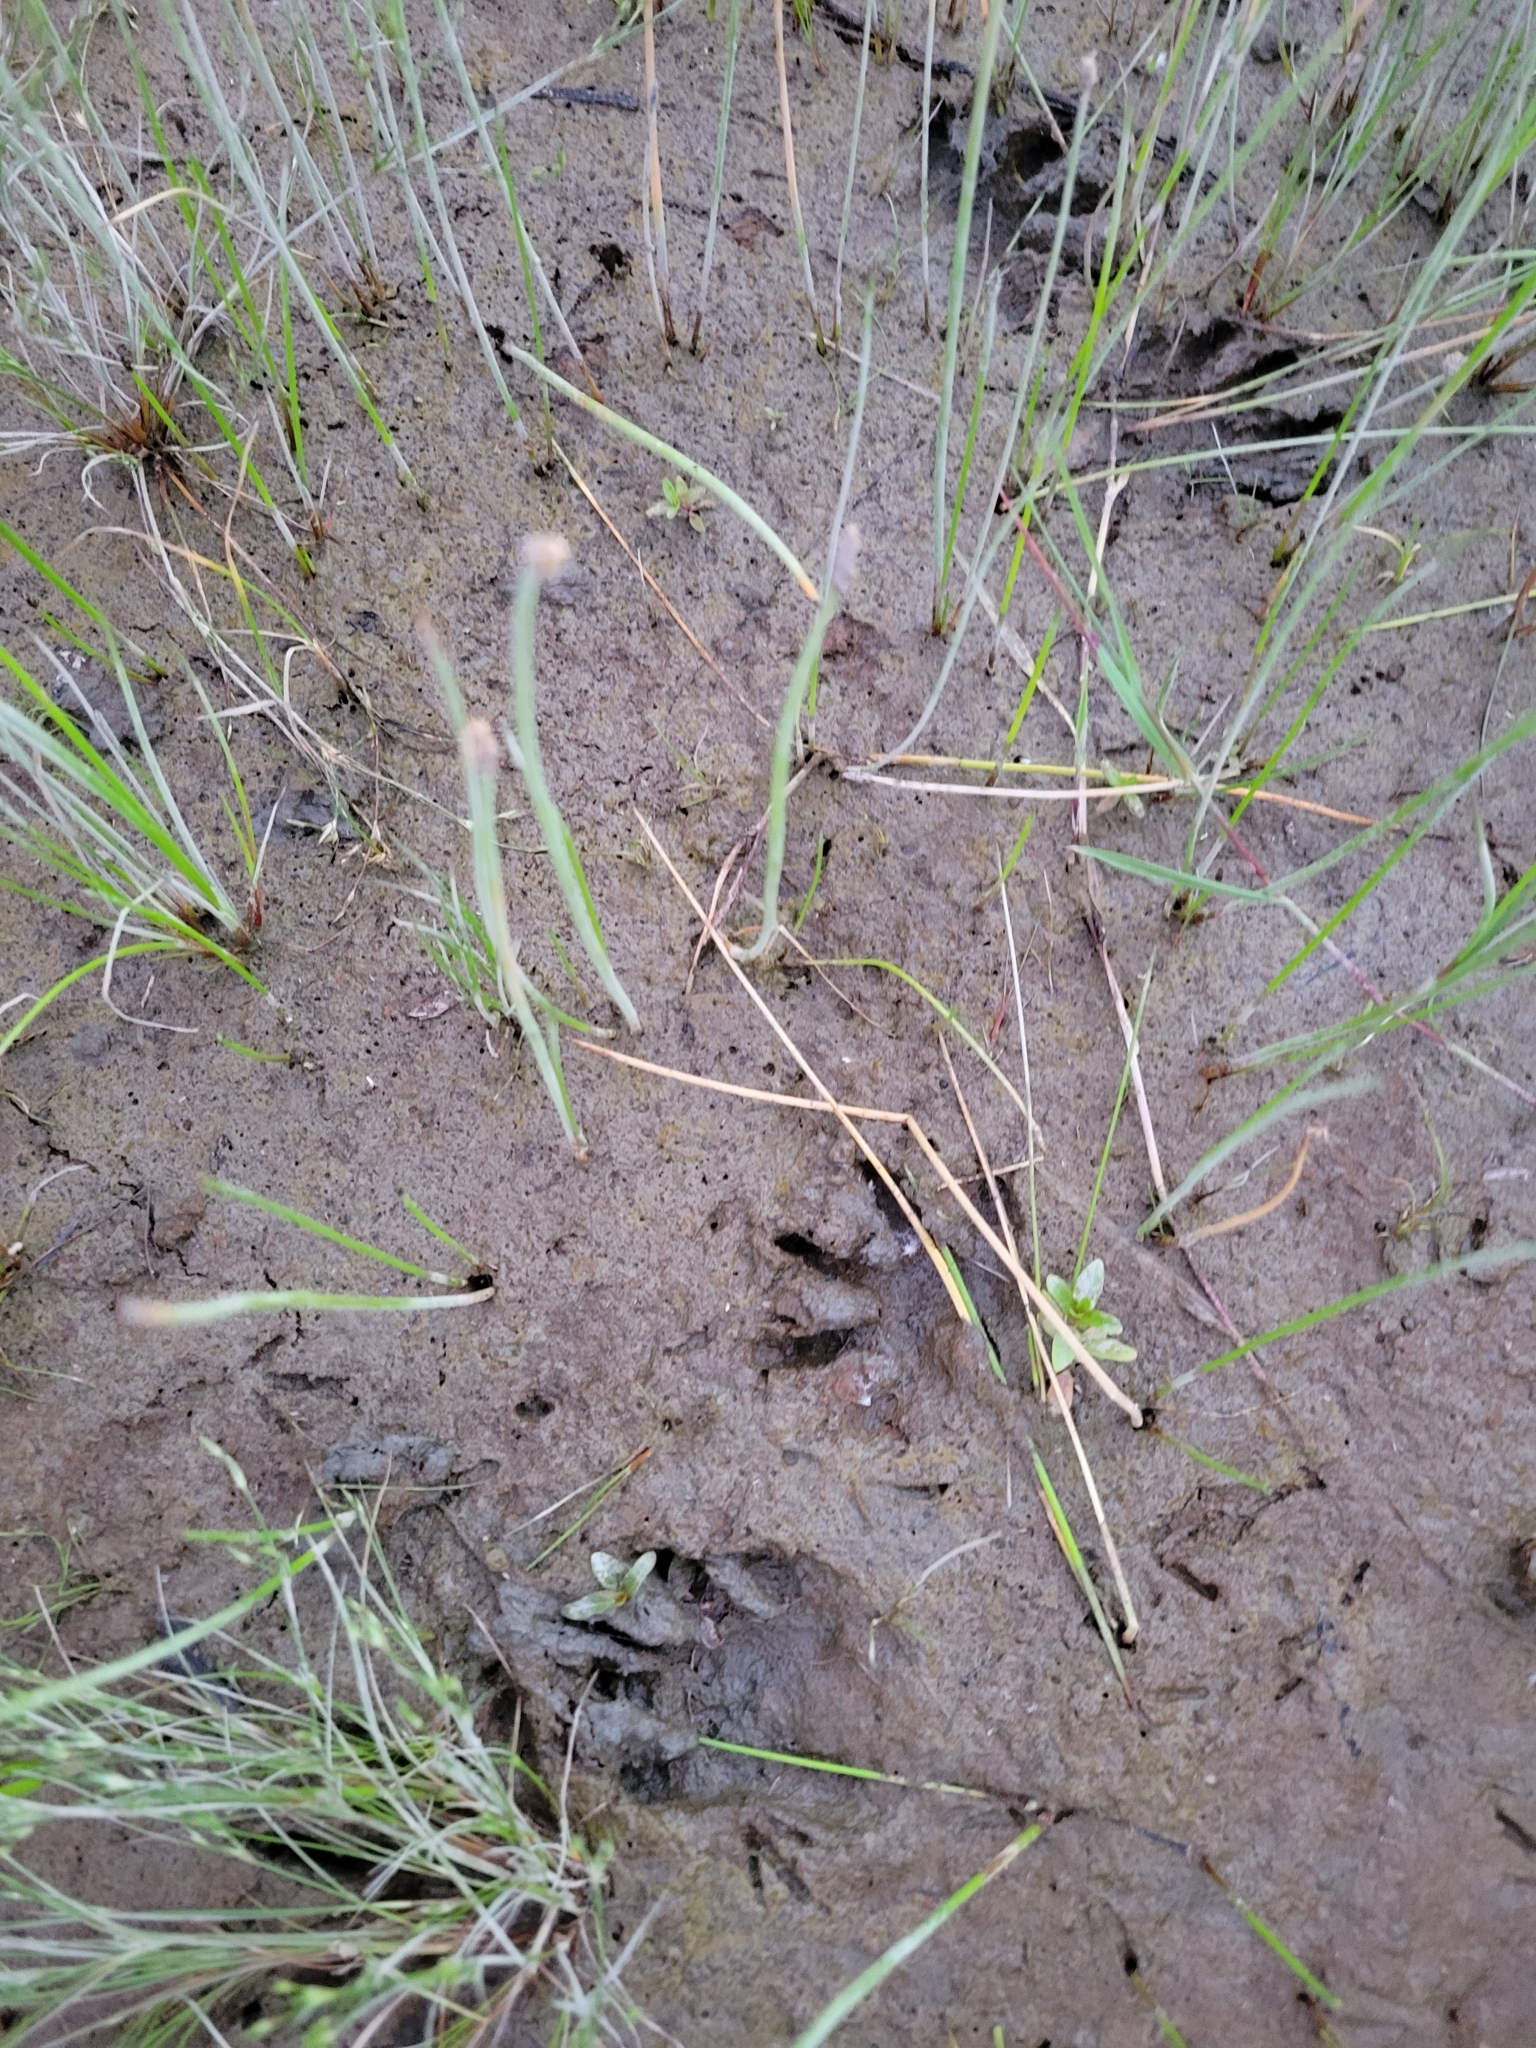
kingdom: Animalia
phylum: Chordata
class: Mammalia
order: Carnivora
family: Procyonidae
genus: Procyon
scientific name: Procyon lotor
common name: Raccoon
